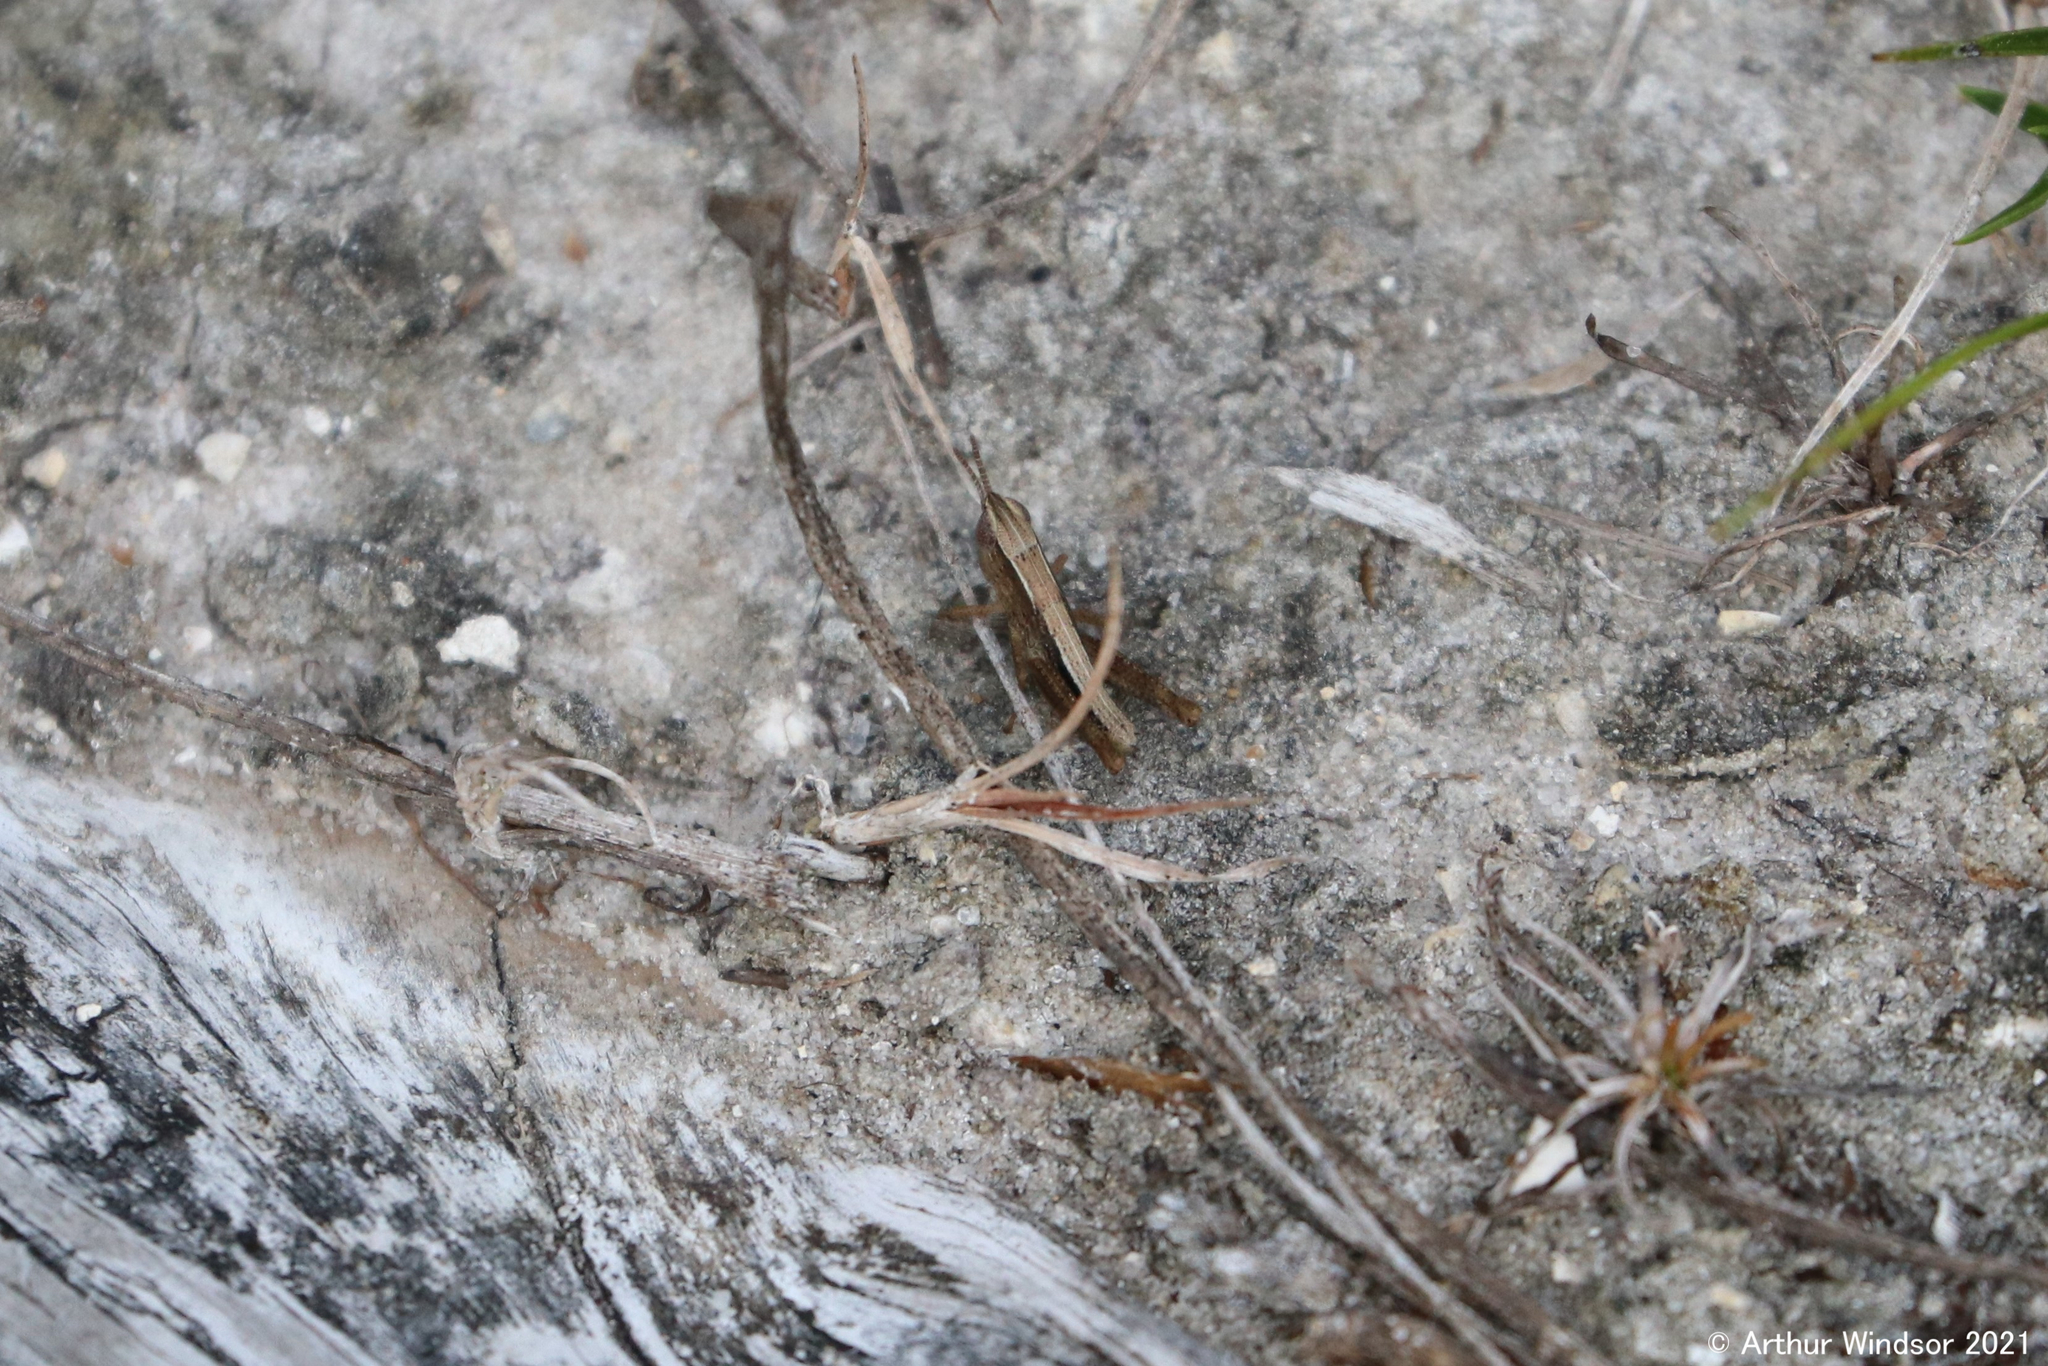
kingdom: Animalia
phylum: Arthropoda
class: Insecta
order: Orthoptera
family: Acrididae
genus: Dichromorpha
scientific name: Dichromorpha elegans
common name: Elegant grasshopper
